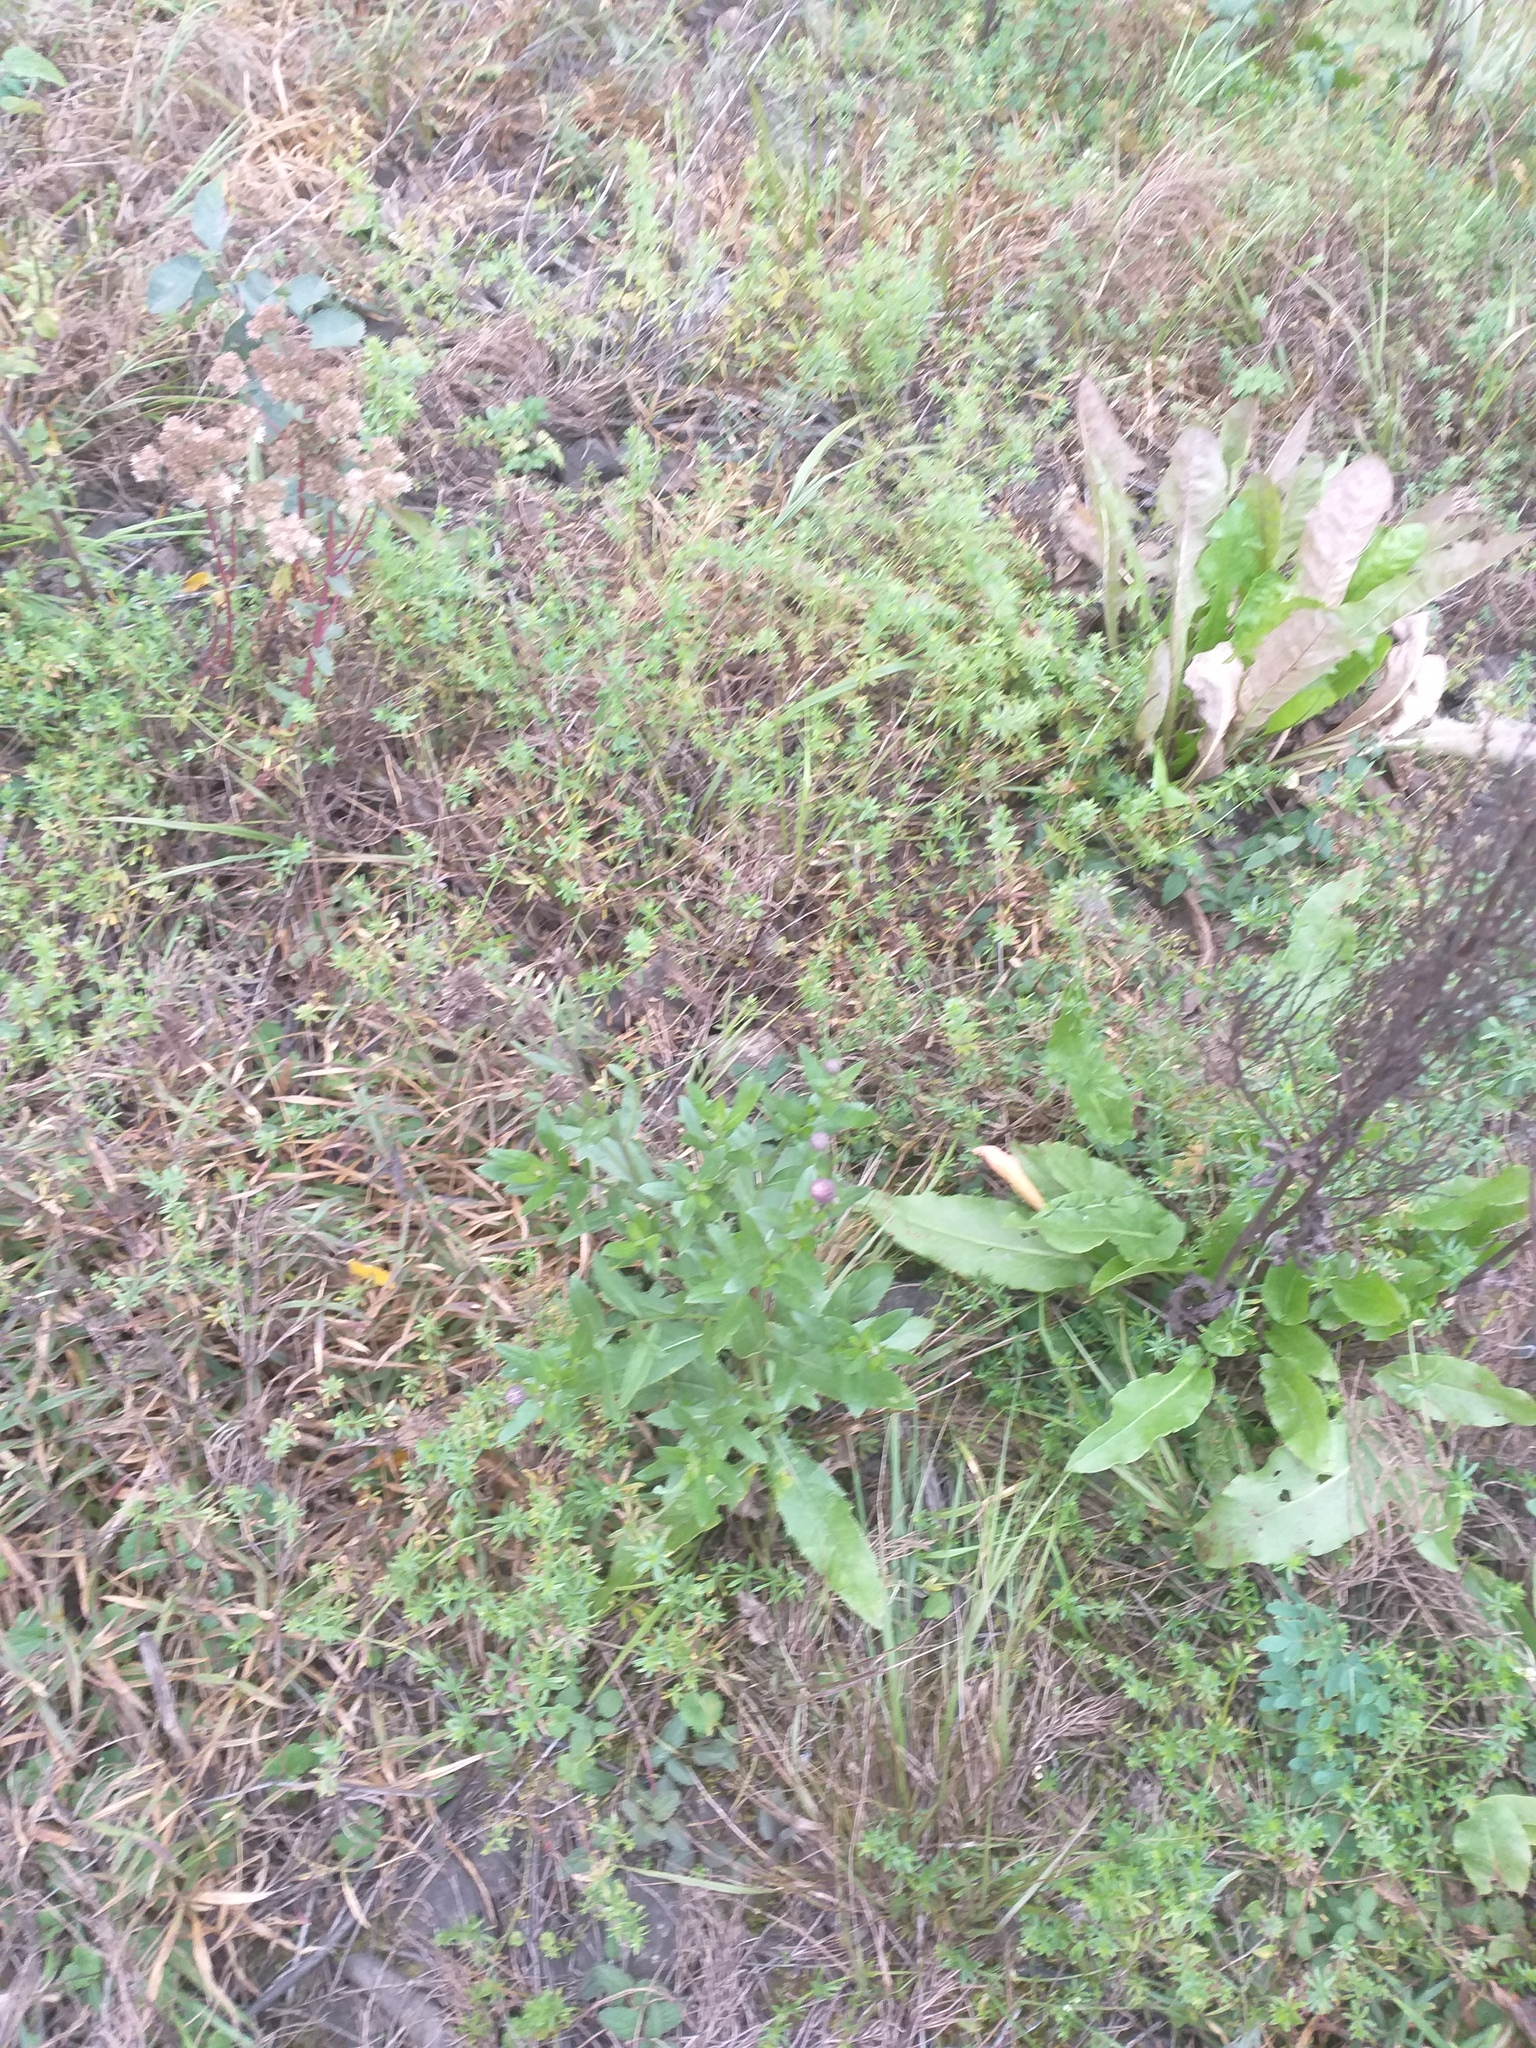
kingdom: Plantae
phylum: Tracheophyta
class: Magnoliopsida
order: Asterales
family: Asteraceae
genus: Cirsium
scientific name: Cirsium arvense
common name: Creeping thistle
